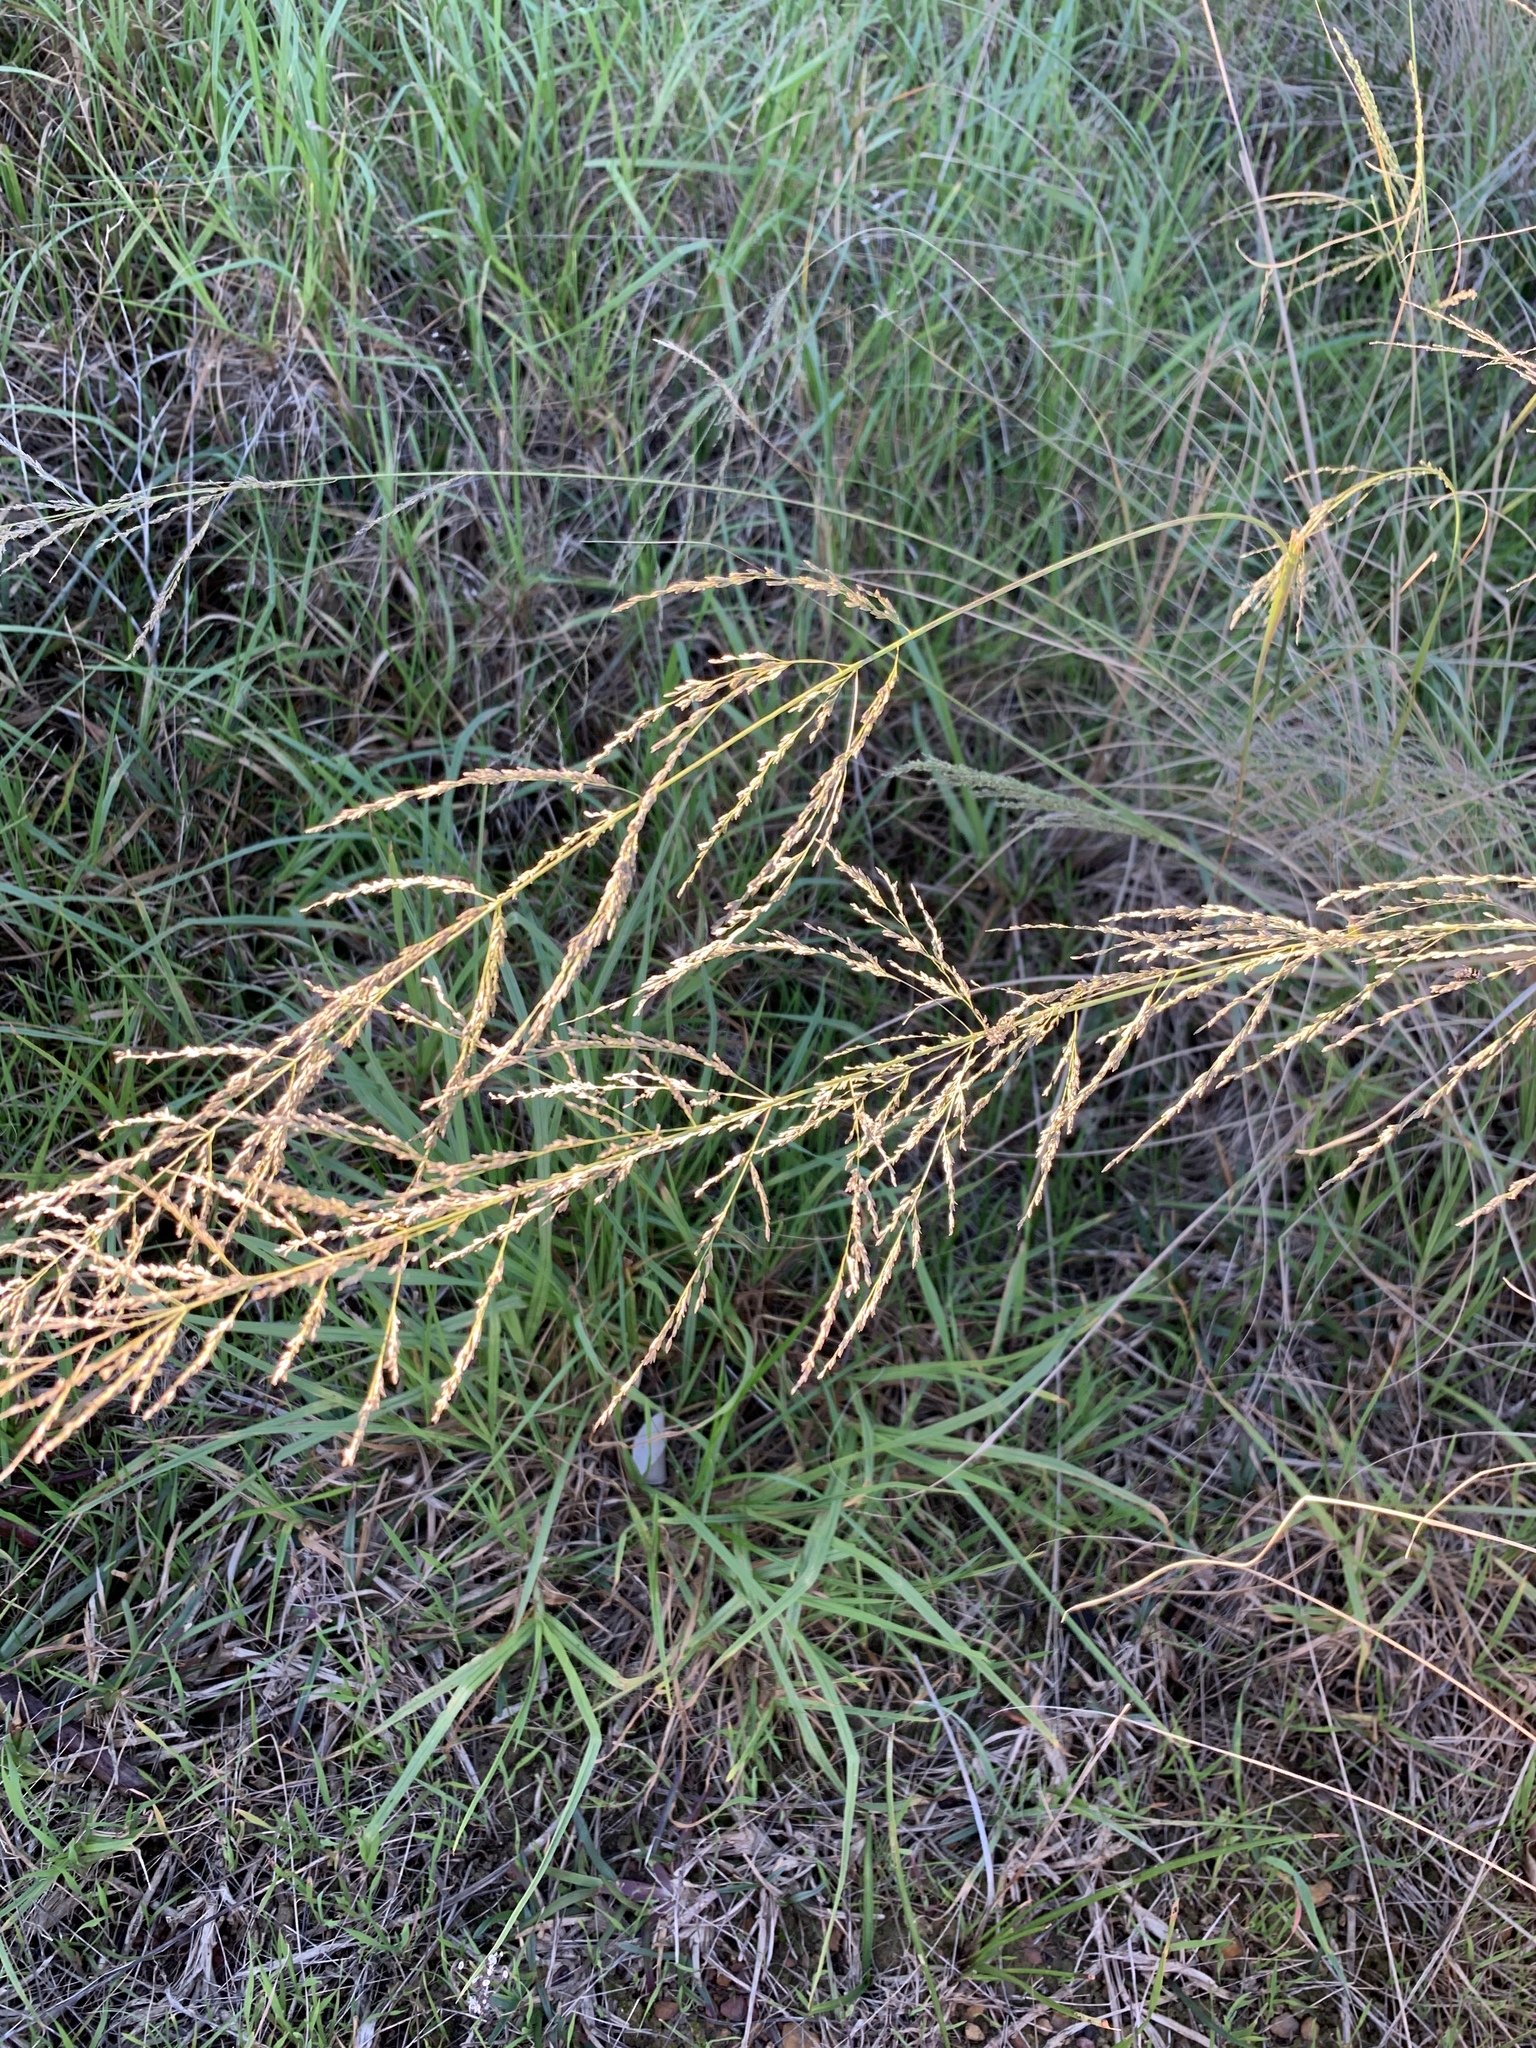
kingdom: Plantae
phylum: Tracheophyta
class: Liliopsida
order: Poales
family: Poaceae
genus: Eragrostis
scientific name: Eragrostis curvula
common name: African love-grass
